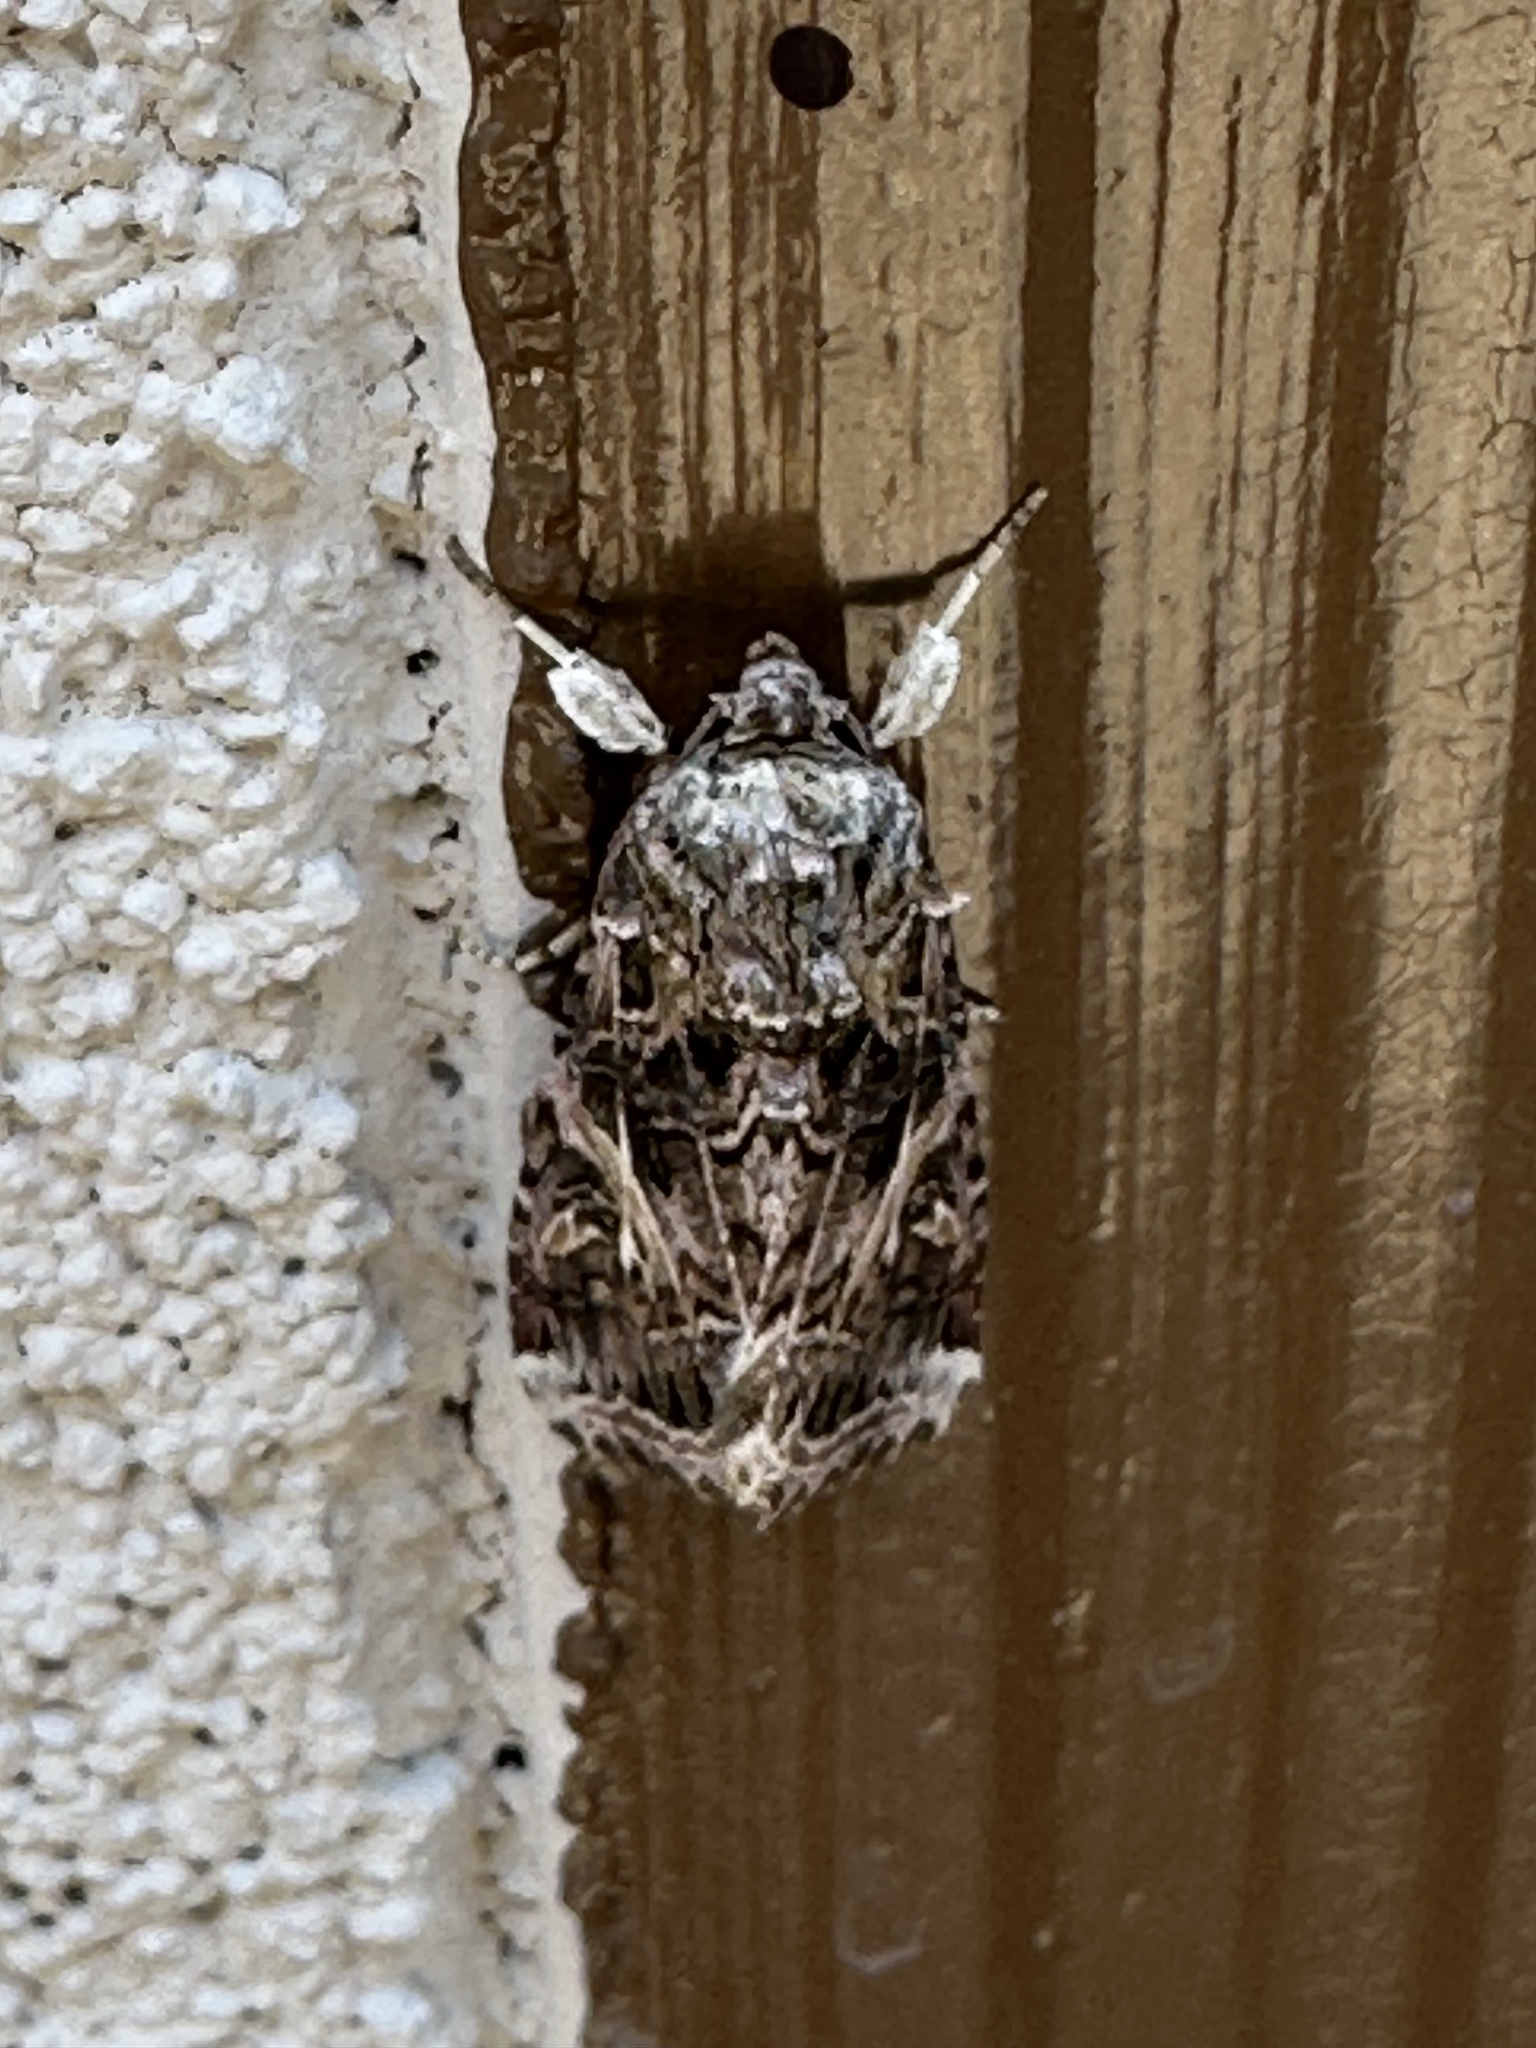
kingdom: Animalia
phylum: Arthropoda
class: Insecta
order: Lepidoptera
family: Noctuidae
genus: Spodoptera
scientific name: Spodoptera ornithogalli
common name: Yellow-striped armyworm
